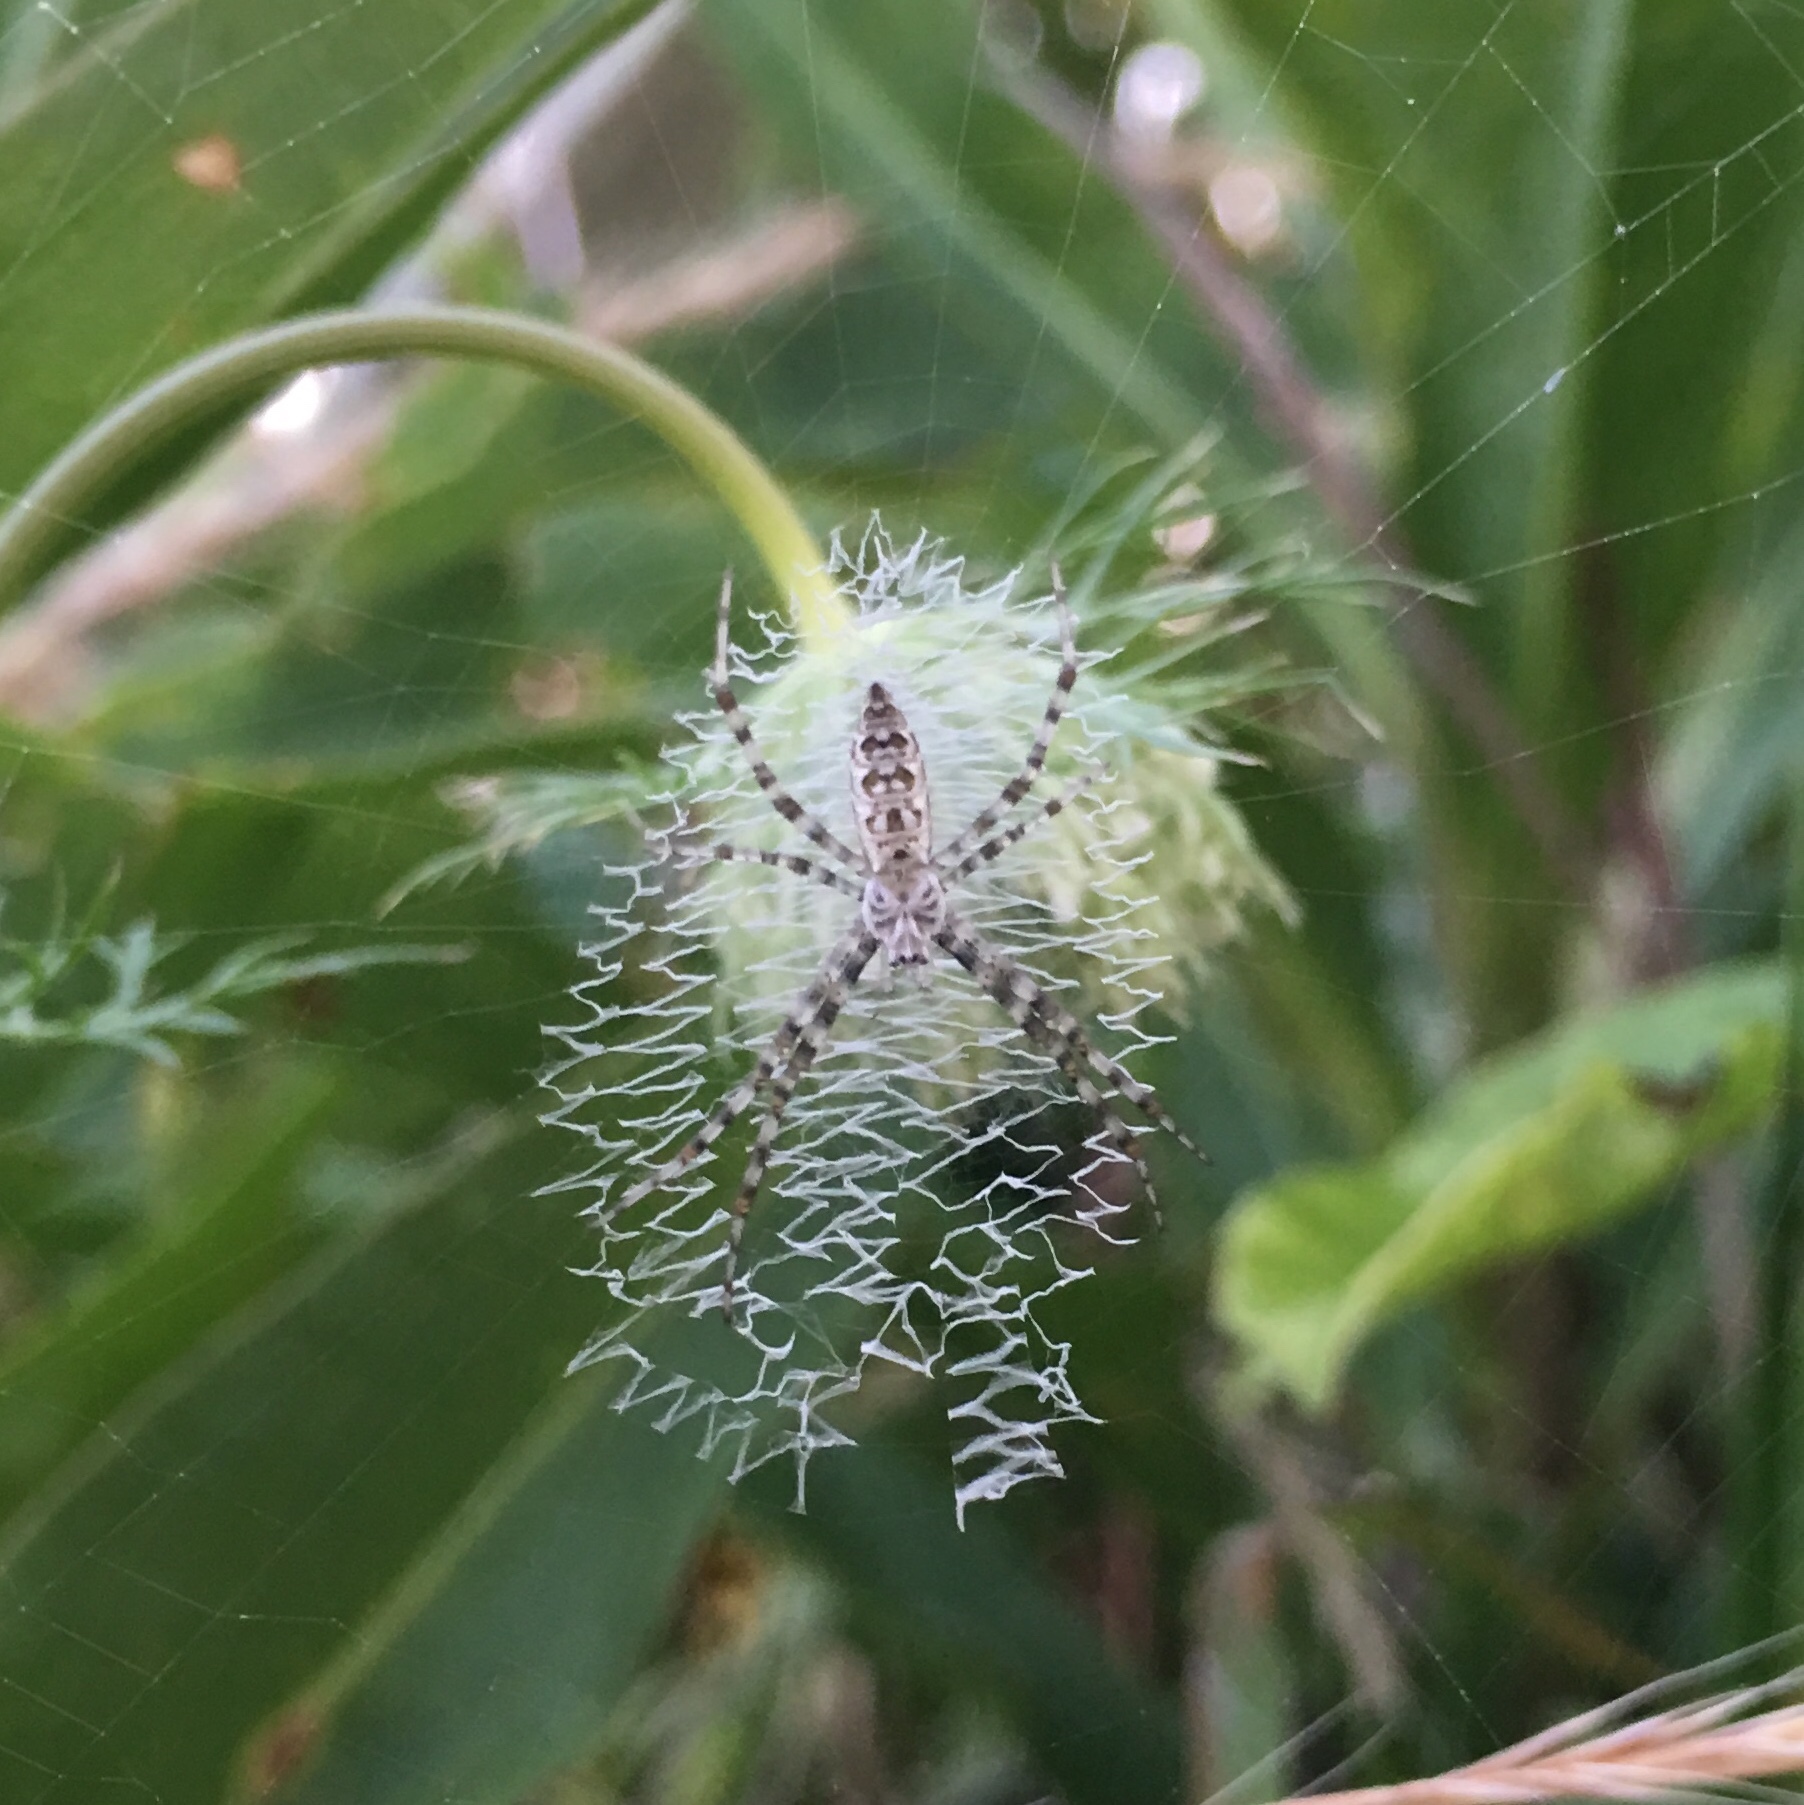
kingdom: Animalia
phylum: Arthropoda
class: Arachnida
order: Araneae
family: Araneidae
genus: Argiope
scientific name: Argiope aurantia
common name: Orb weavers
